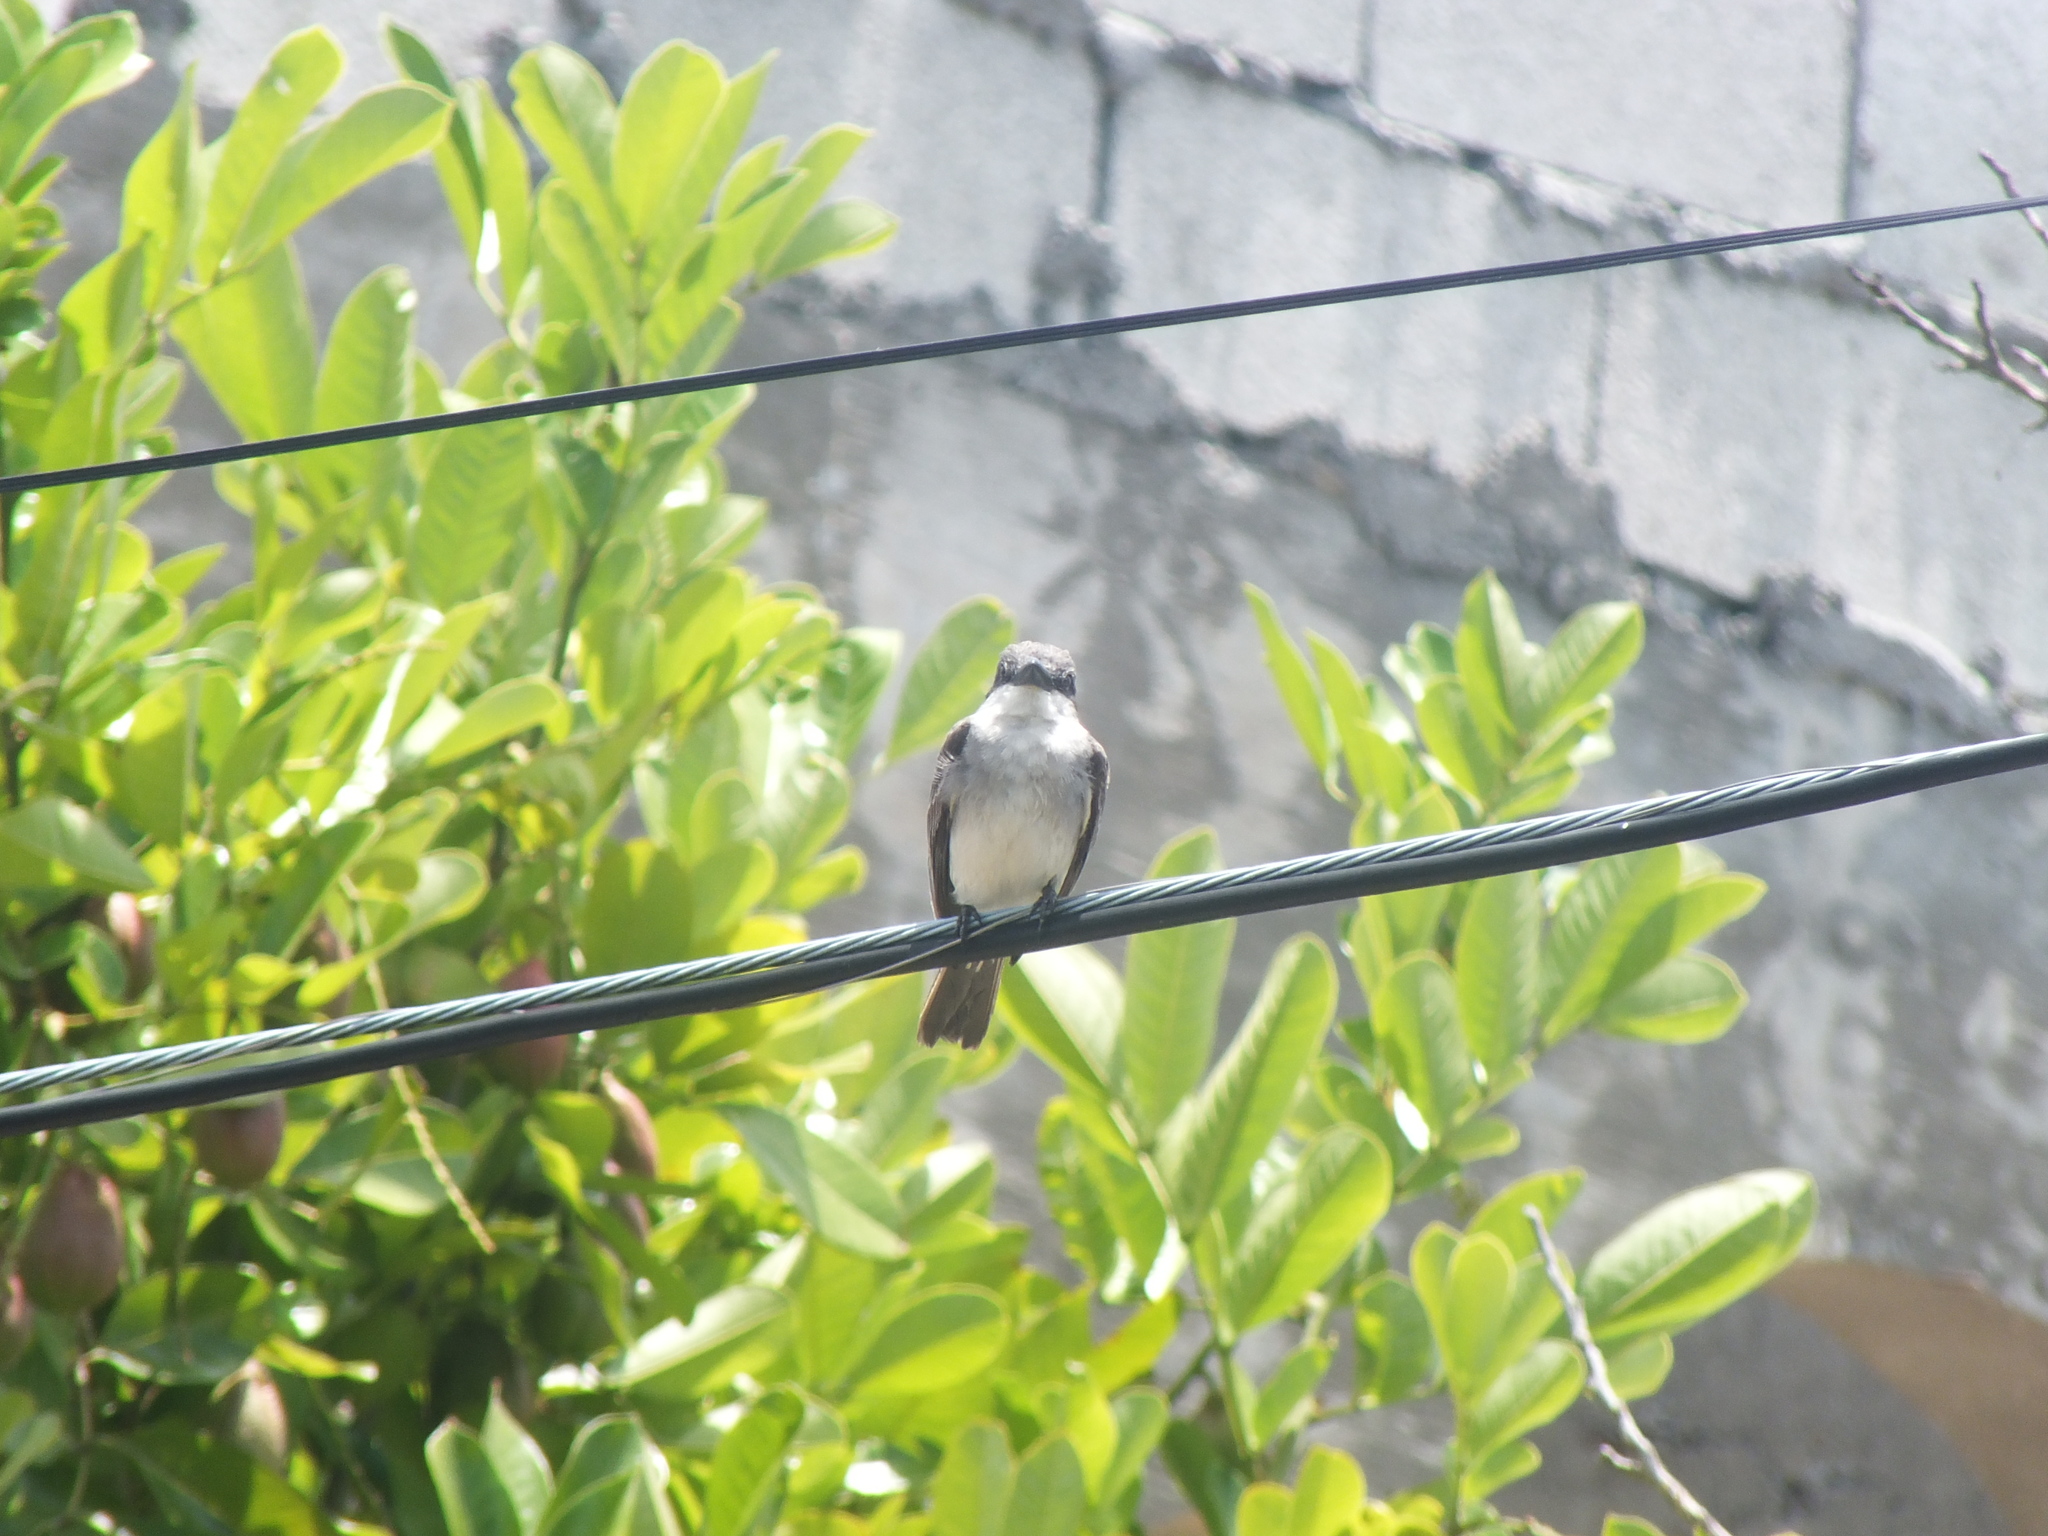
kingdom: Animalia
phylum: Chordata
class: Aves
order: Passeriformes
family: Tyrannidae
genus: Tyrannus
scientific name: Tyrannus dominicensis
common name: Gray kingbird
